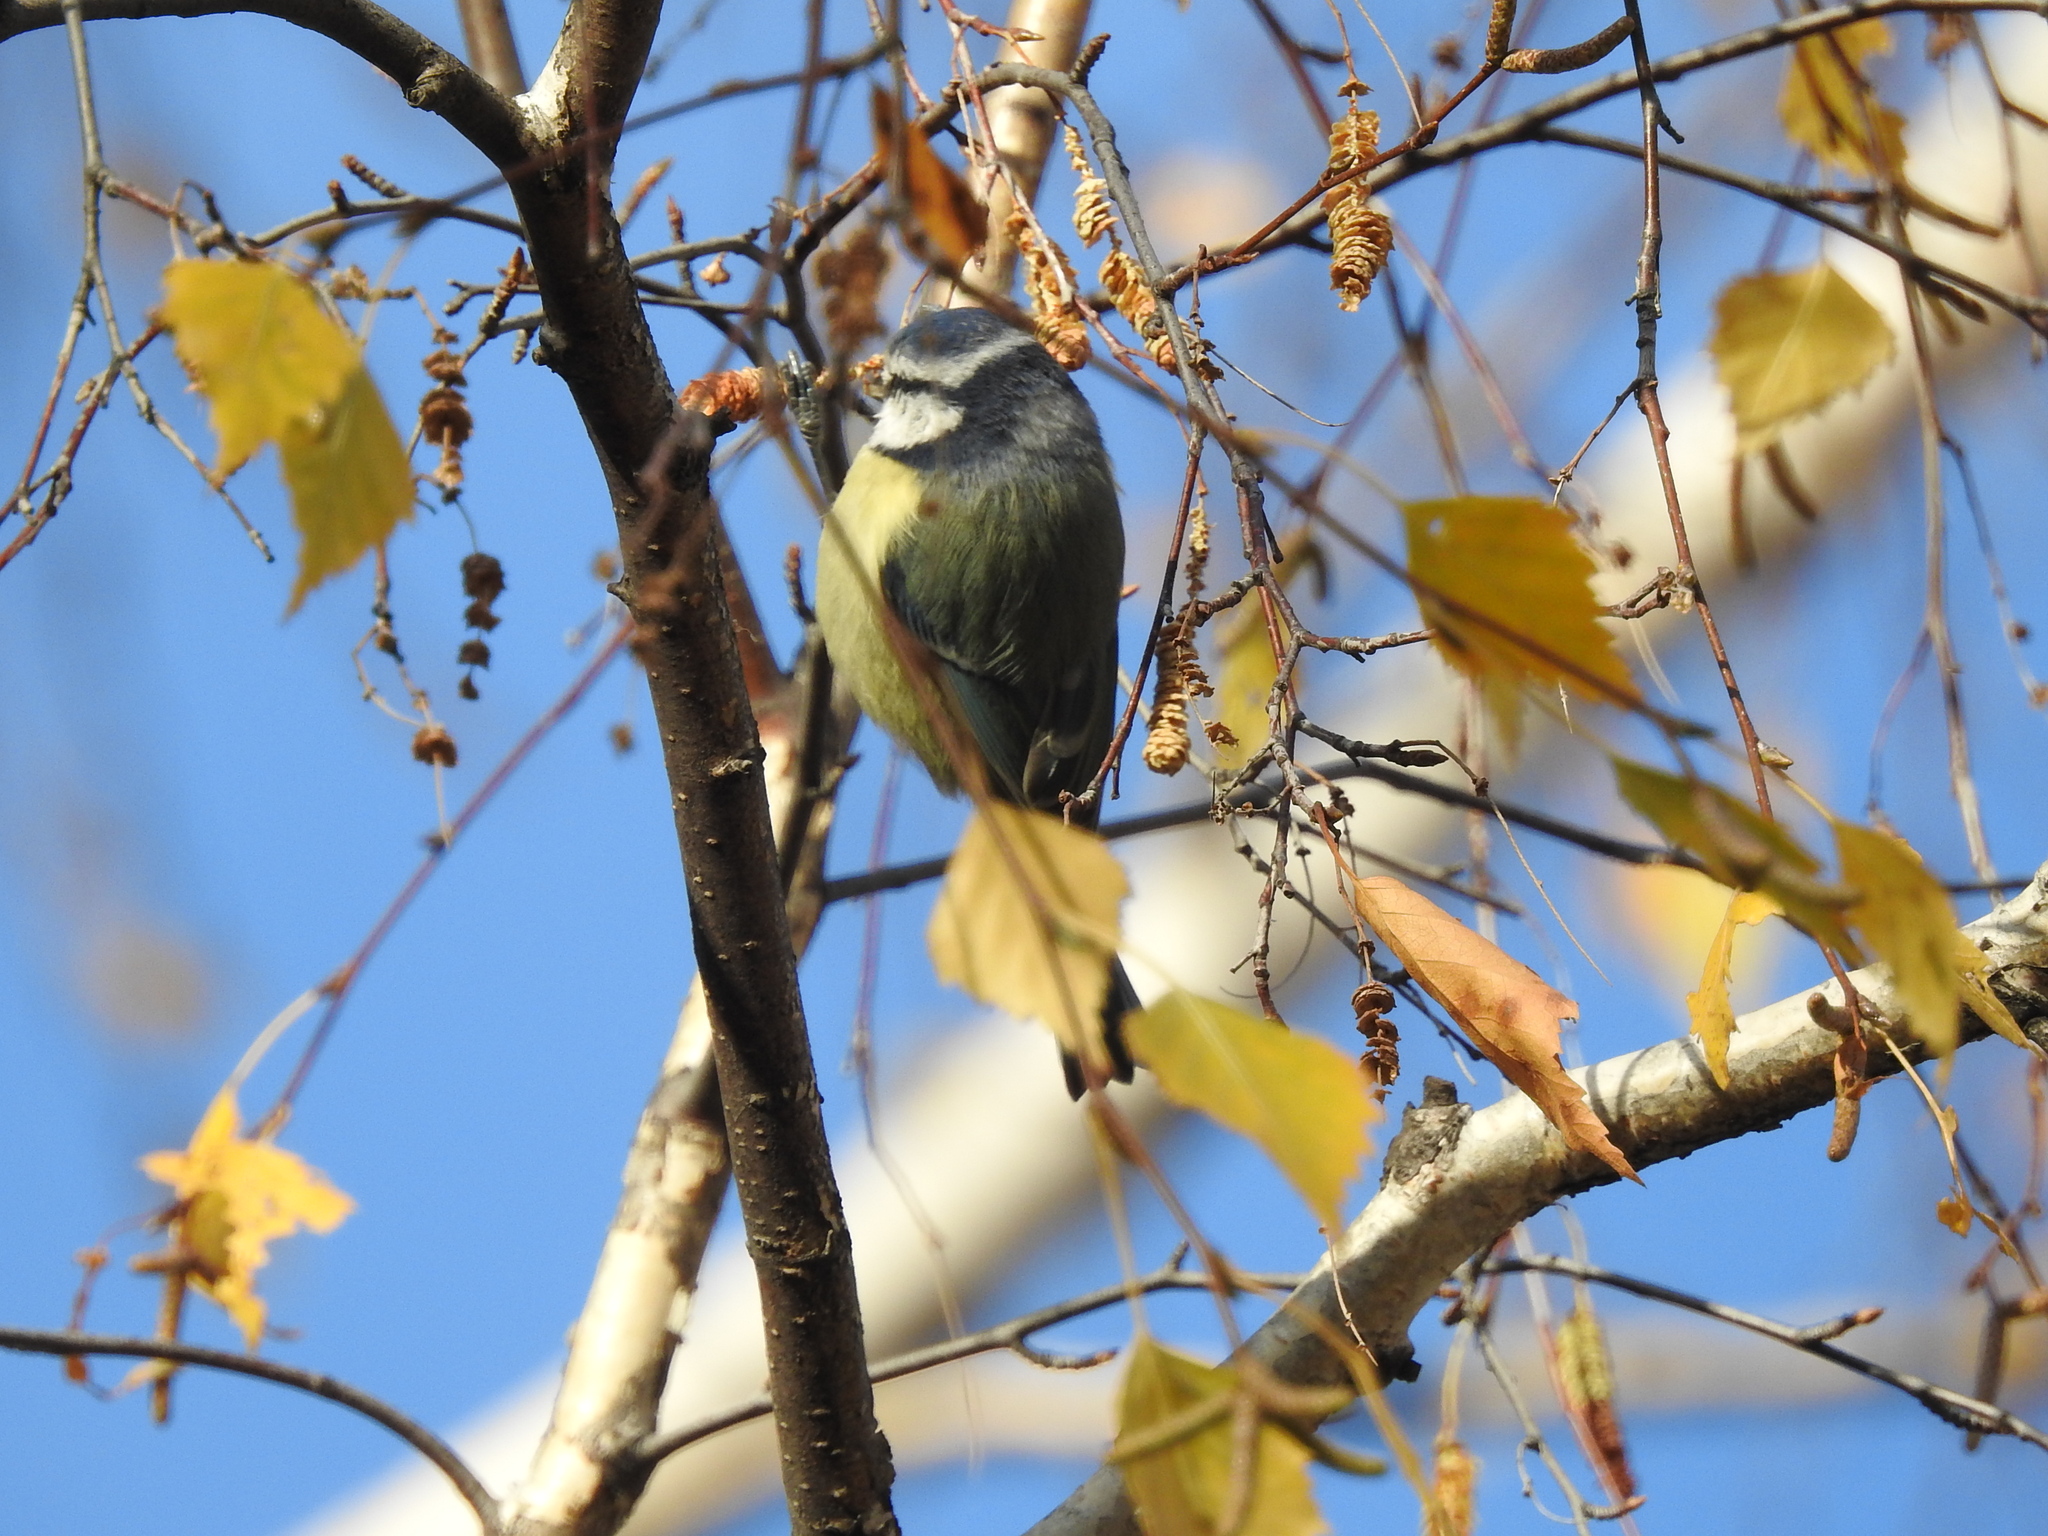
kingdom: Animalia
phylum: Chordata
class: Aves
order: Passeriformes
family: Paridae
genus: Cyanistes
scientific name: Cyanistes caeruleus
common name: Eurasian blue tit
